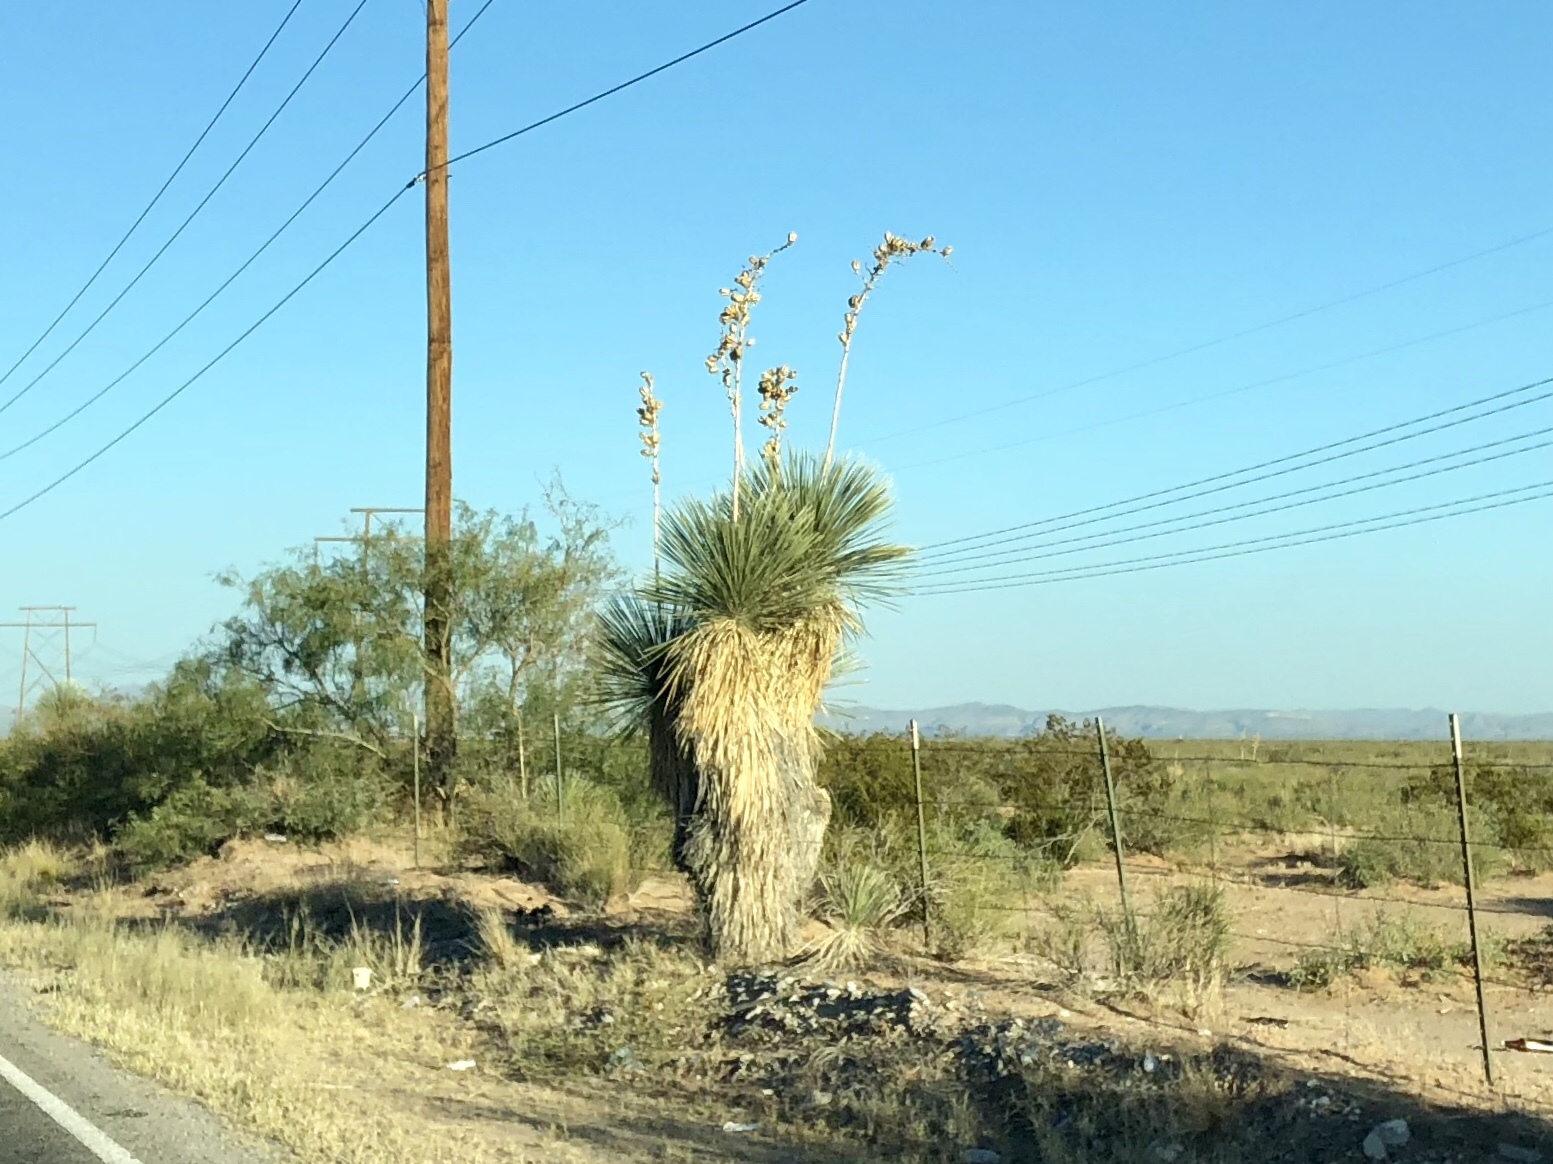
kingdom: Plantae
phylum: Tracheophyta
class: Liliopsida
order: Asparagales
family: Asparagaceae
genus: Yucca
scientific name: Yucca elata
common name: Palmella
